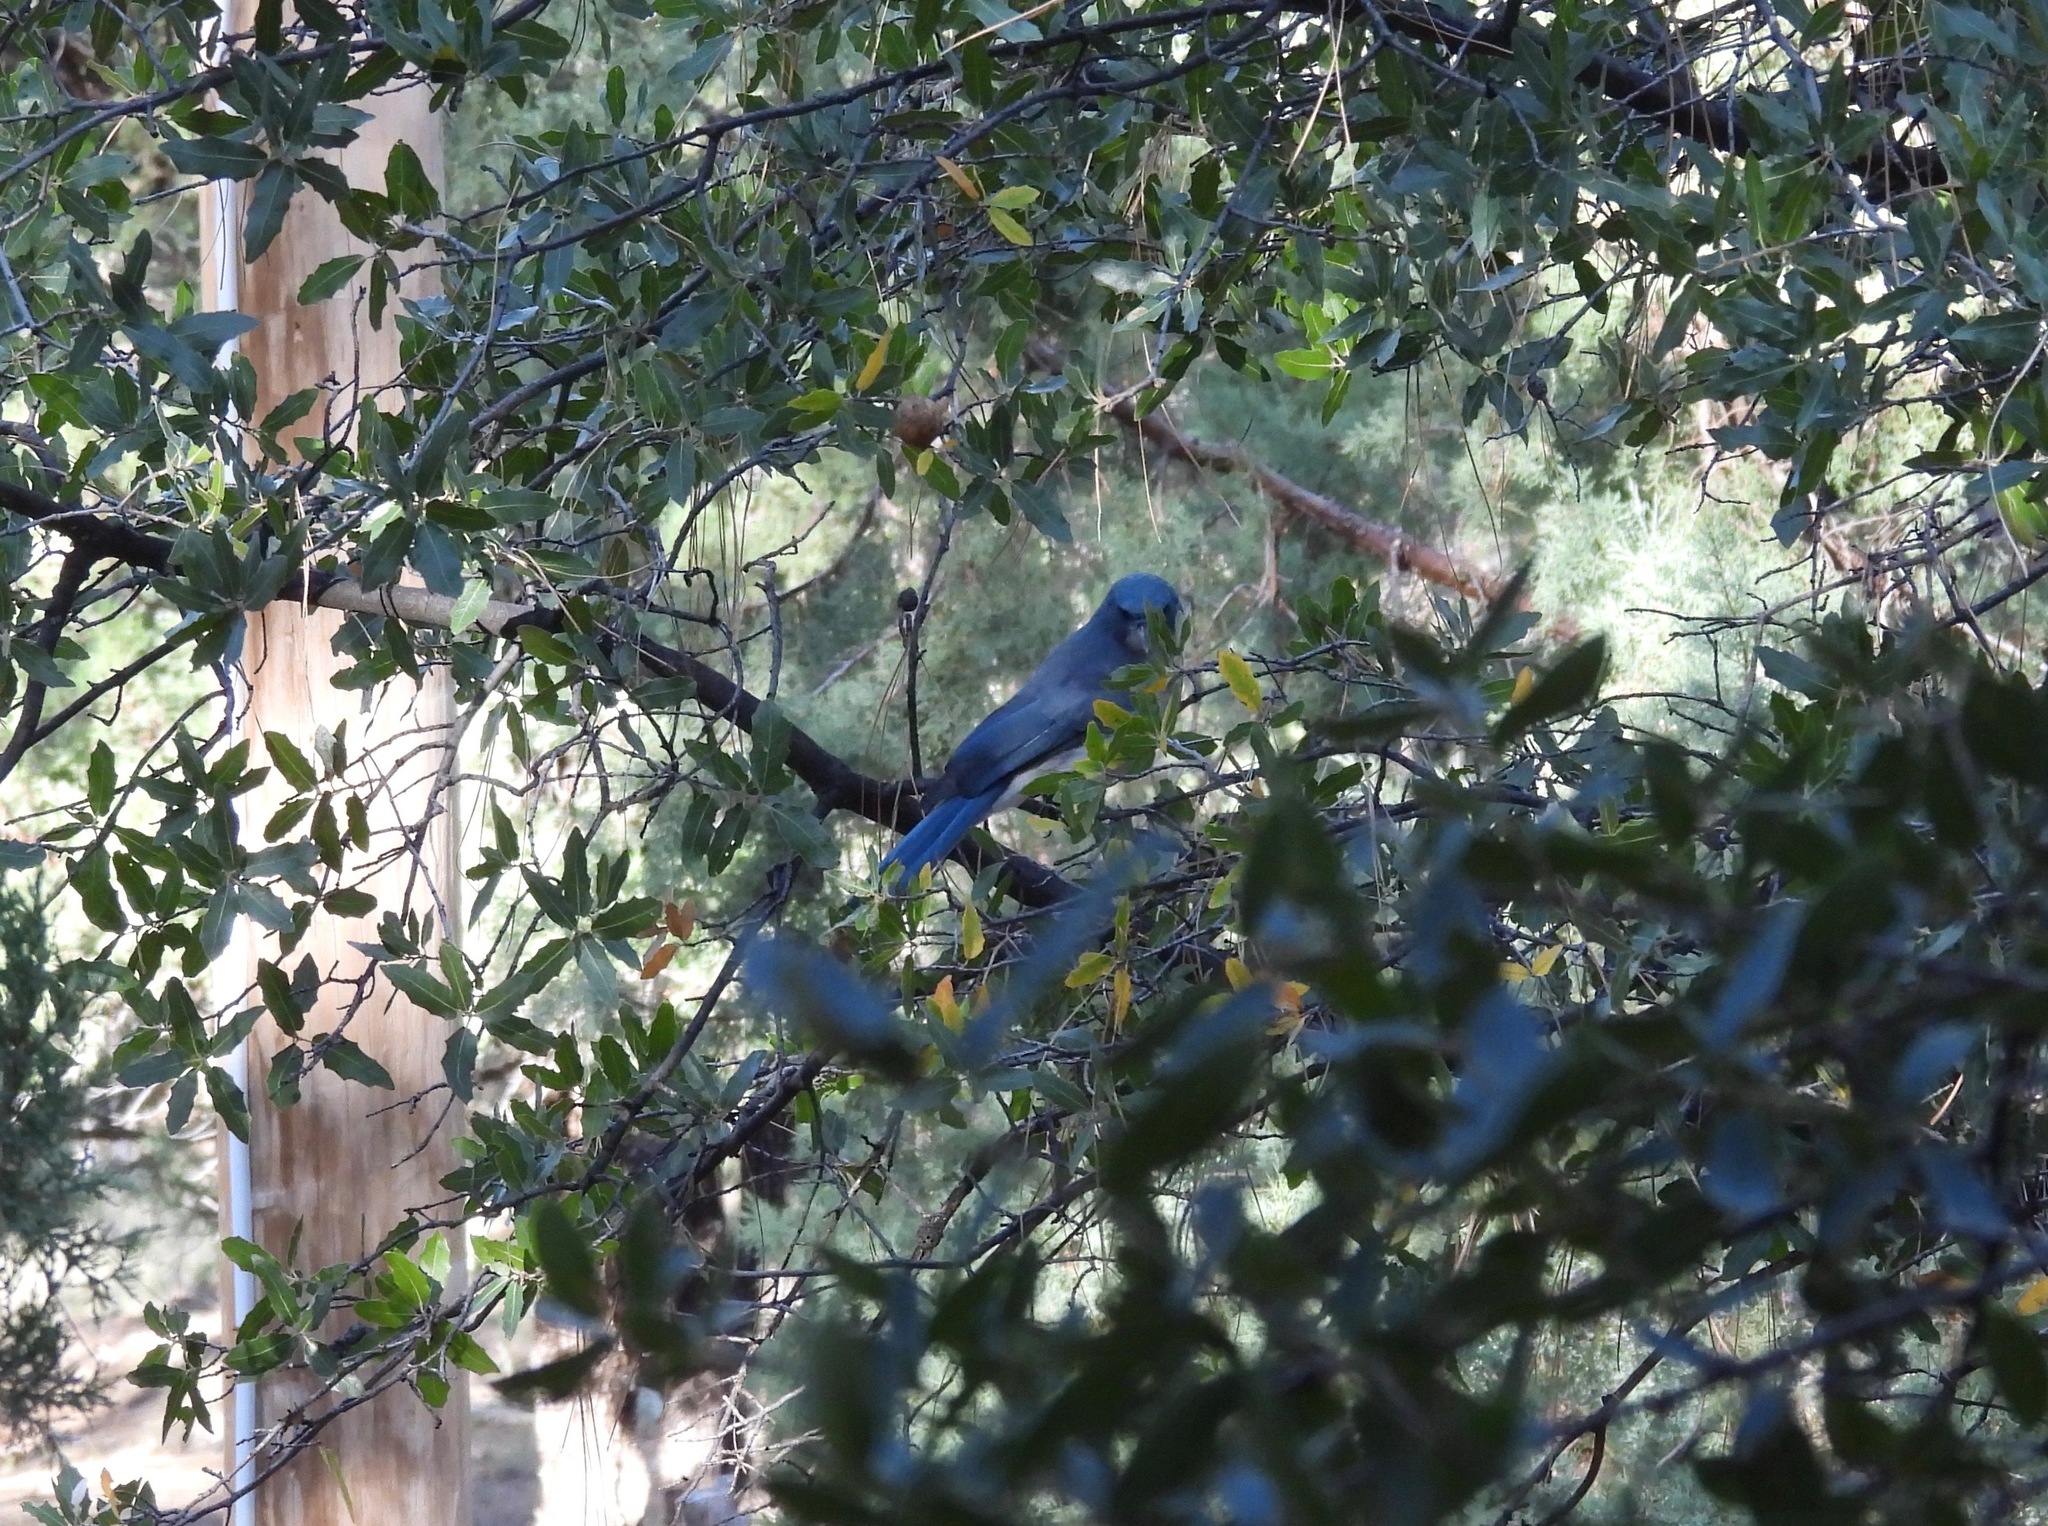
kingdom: Animalia
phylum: Chordata
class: Aves
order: Passeriformes
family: Corvidae
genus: Aphelocoma
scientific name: Aphelocoma wollweberi
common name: Mexican jay
